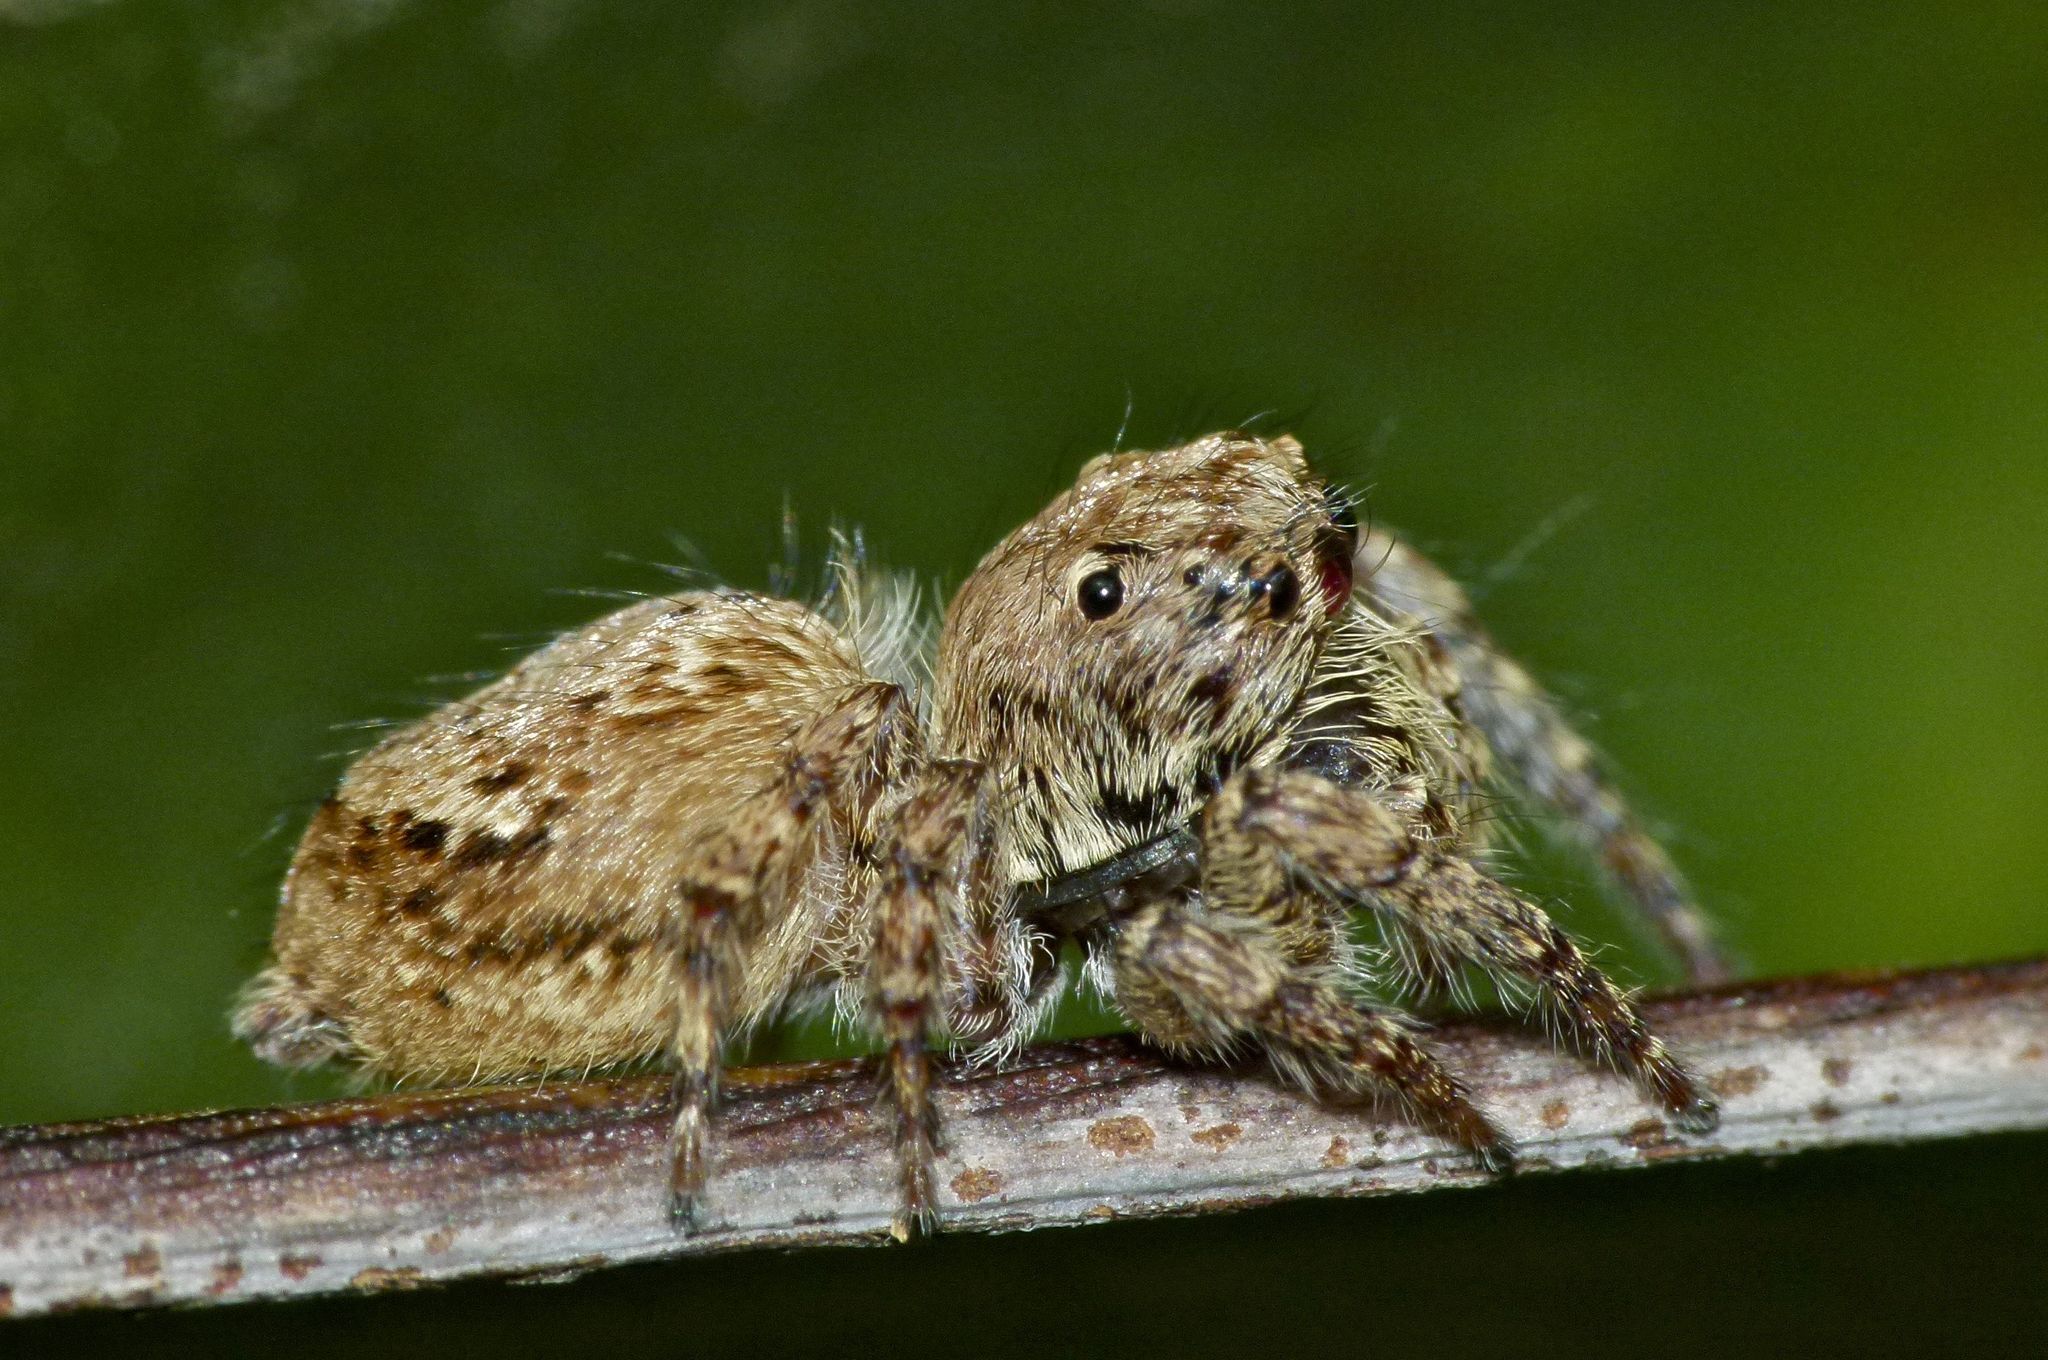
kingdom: Animalia
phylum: Arthropoda
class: Arachnida
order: Araneae
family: Salticidae
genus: Servaea
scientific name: Servaea villosa
